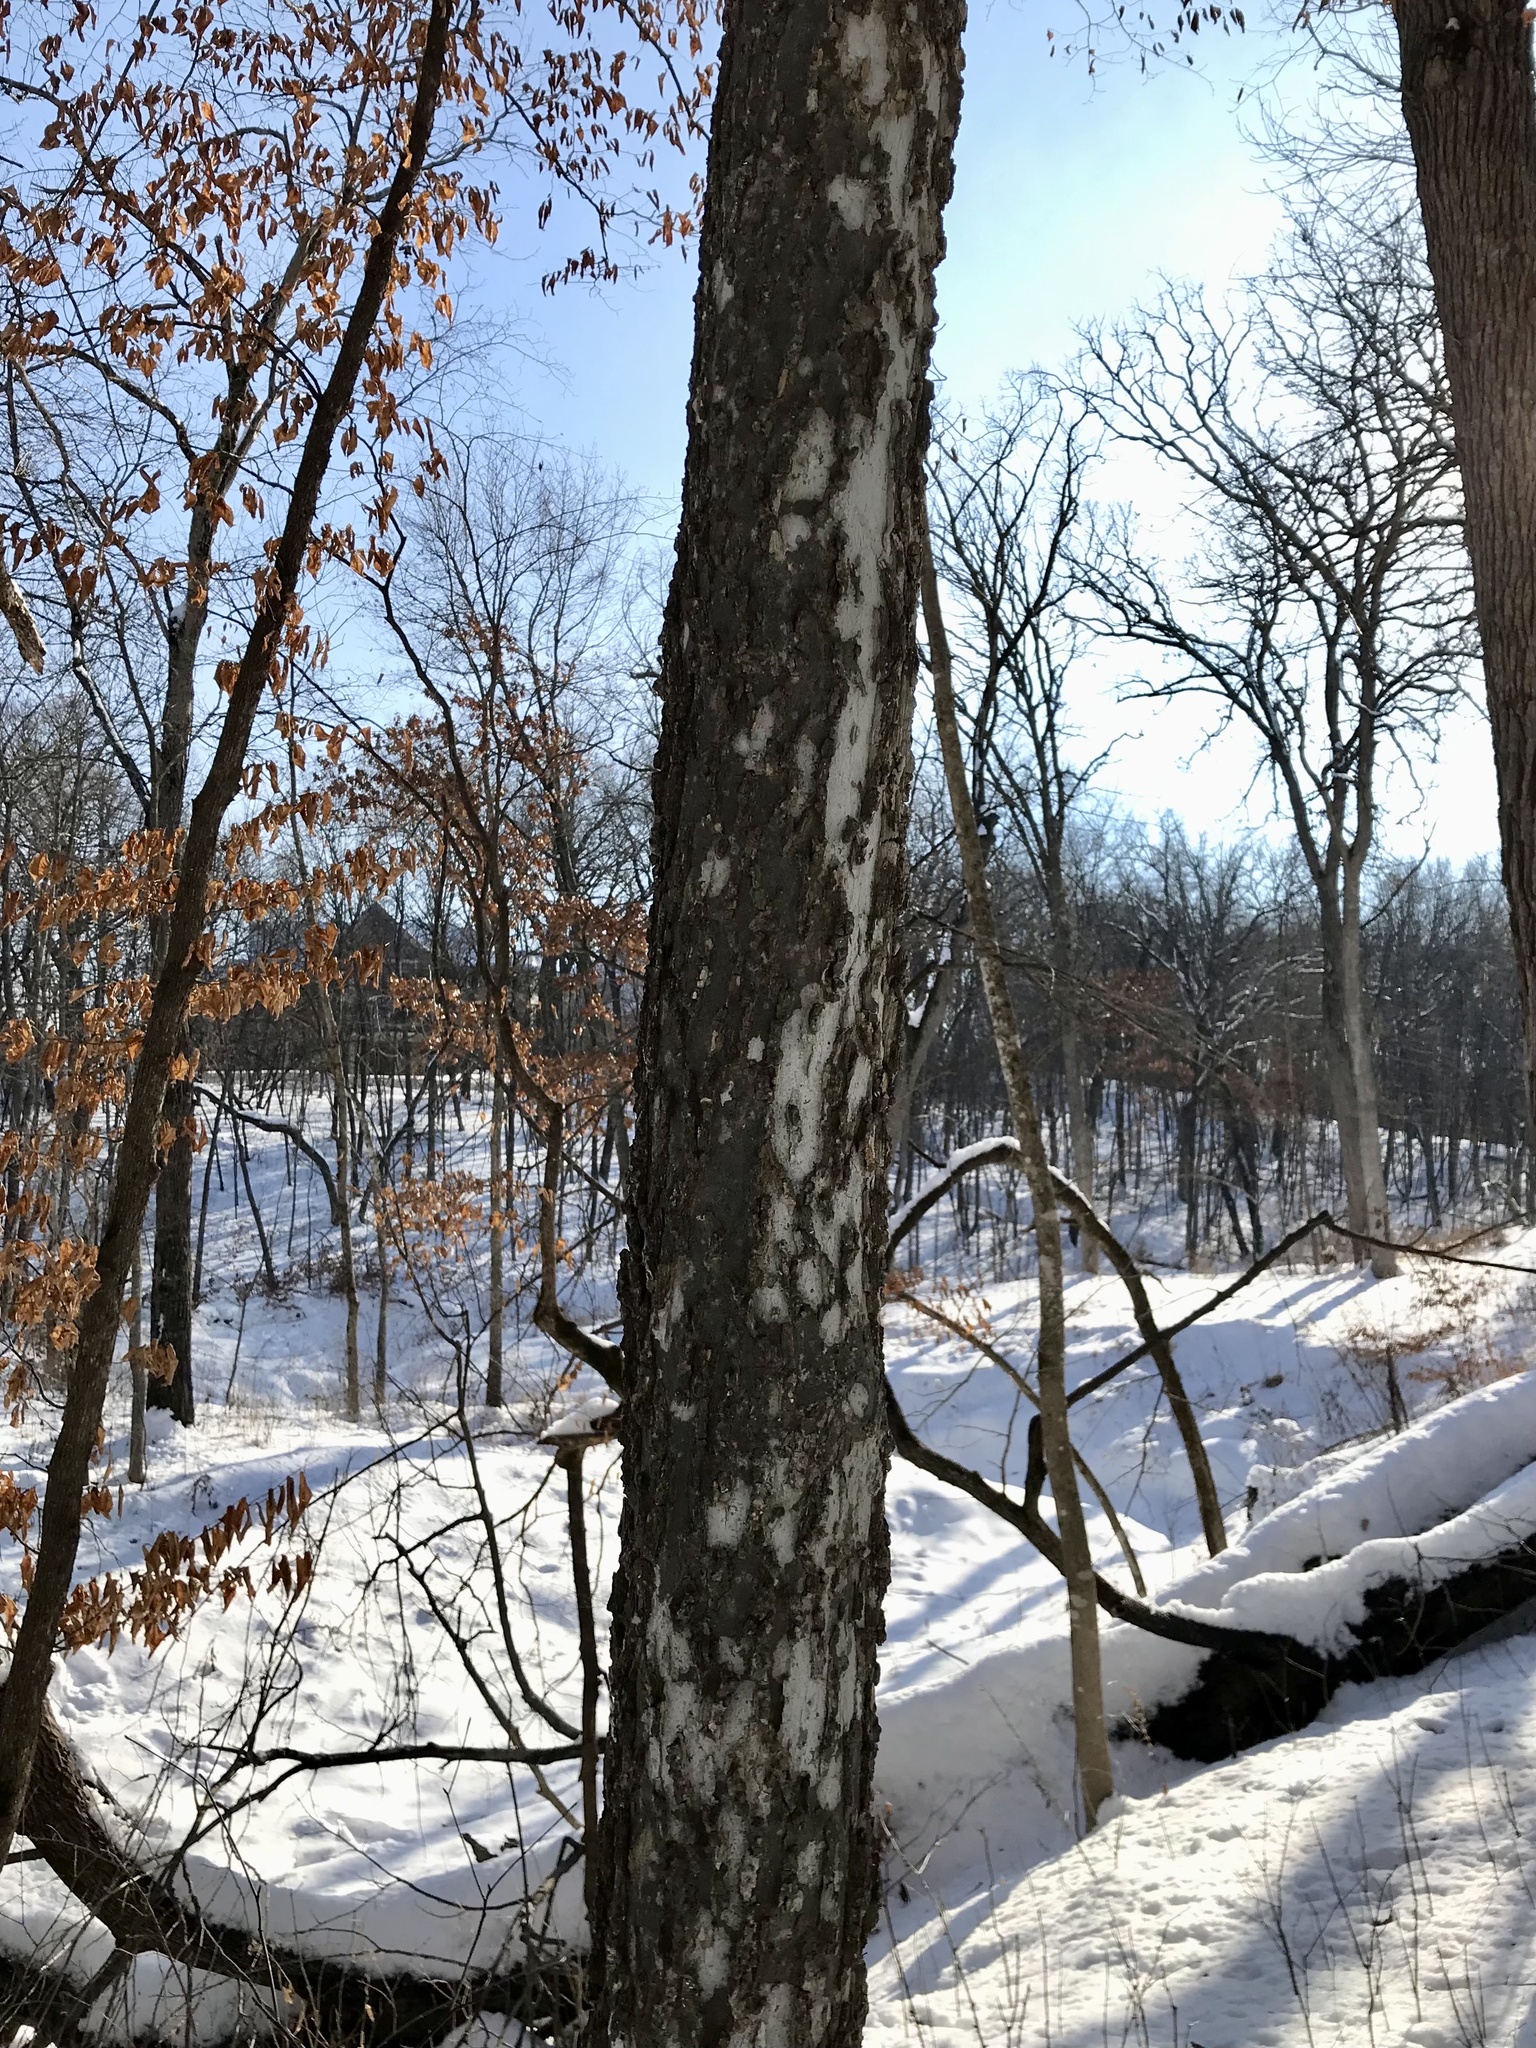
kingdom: Plantae
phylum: Tracheophyta
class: Magnoliopsida
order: Rosales
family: Cannabaceae
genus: Celtis
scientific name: Celtis occidentalis
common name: Common hackberry
